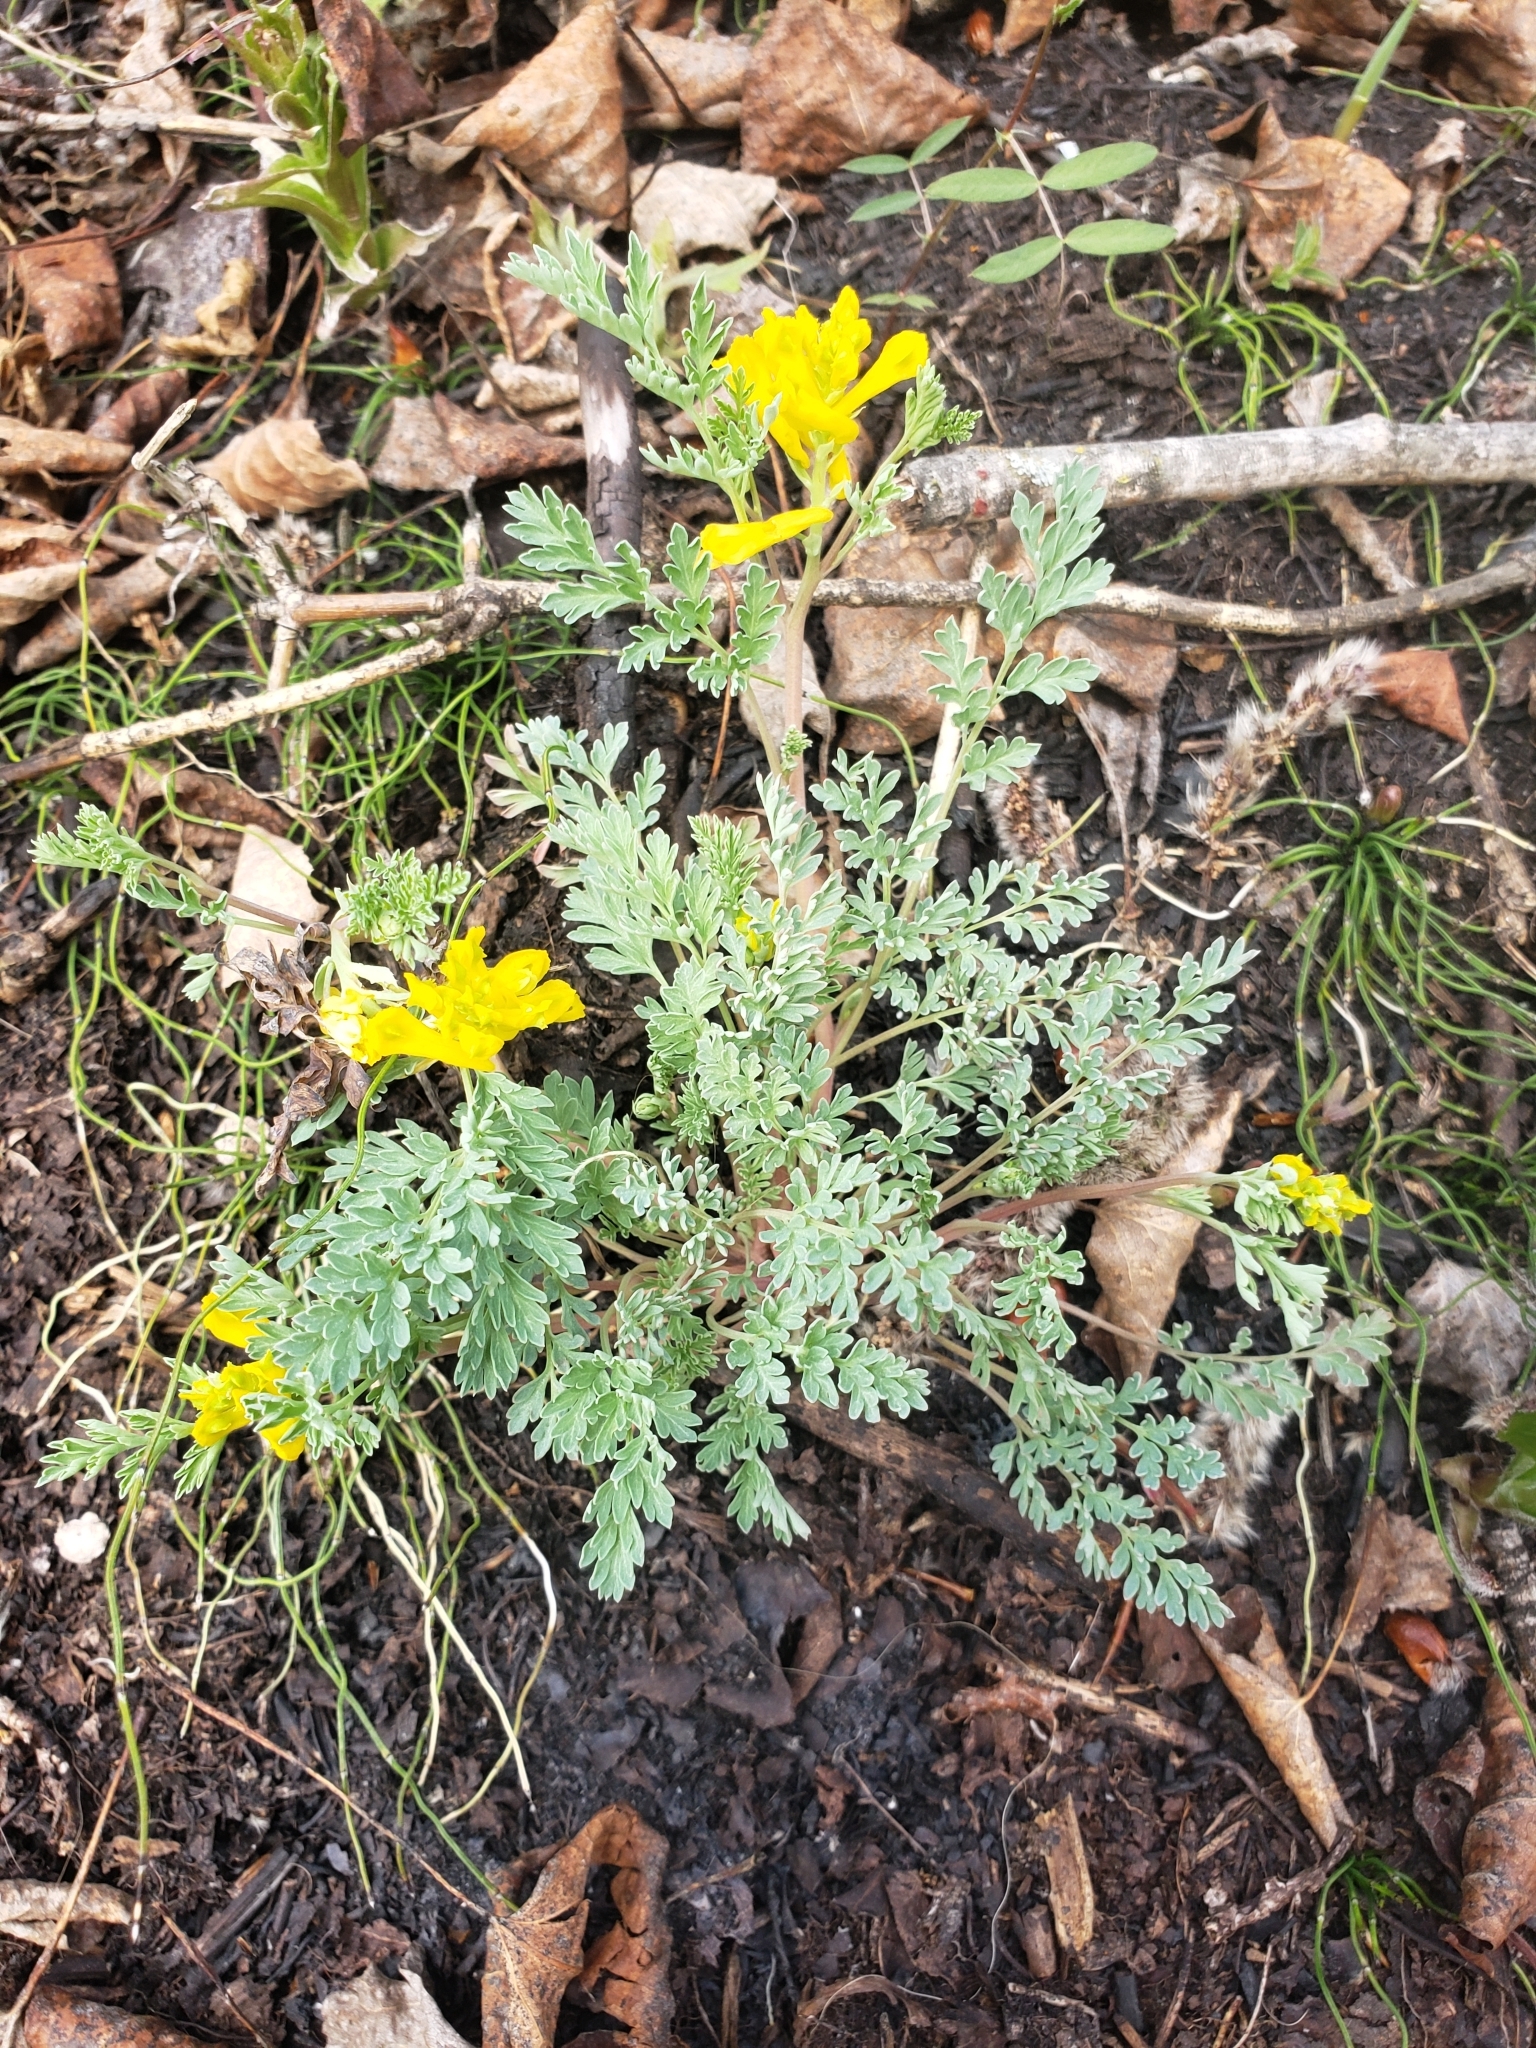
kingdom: Plantae
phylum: Tracheophyta
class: Magnoliopsida
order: Ranunculales
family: Papaveraceae
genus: Corydalis
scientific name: Corydalis aurea
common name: Golden corydalis
